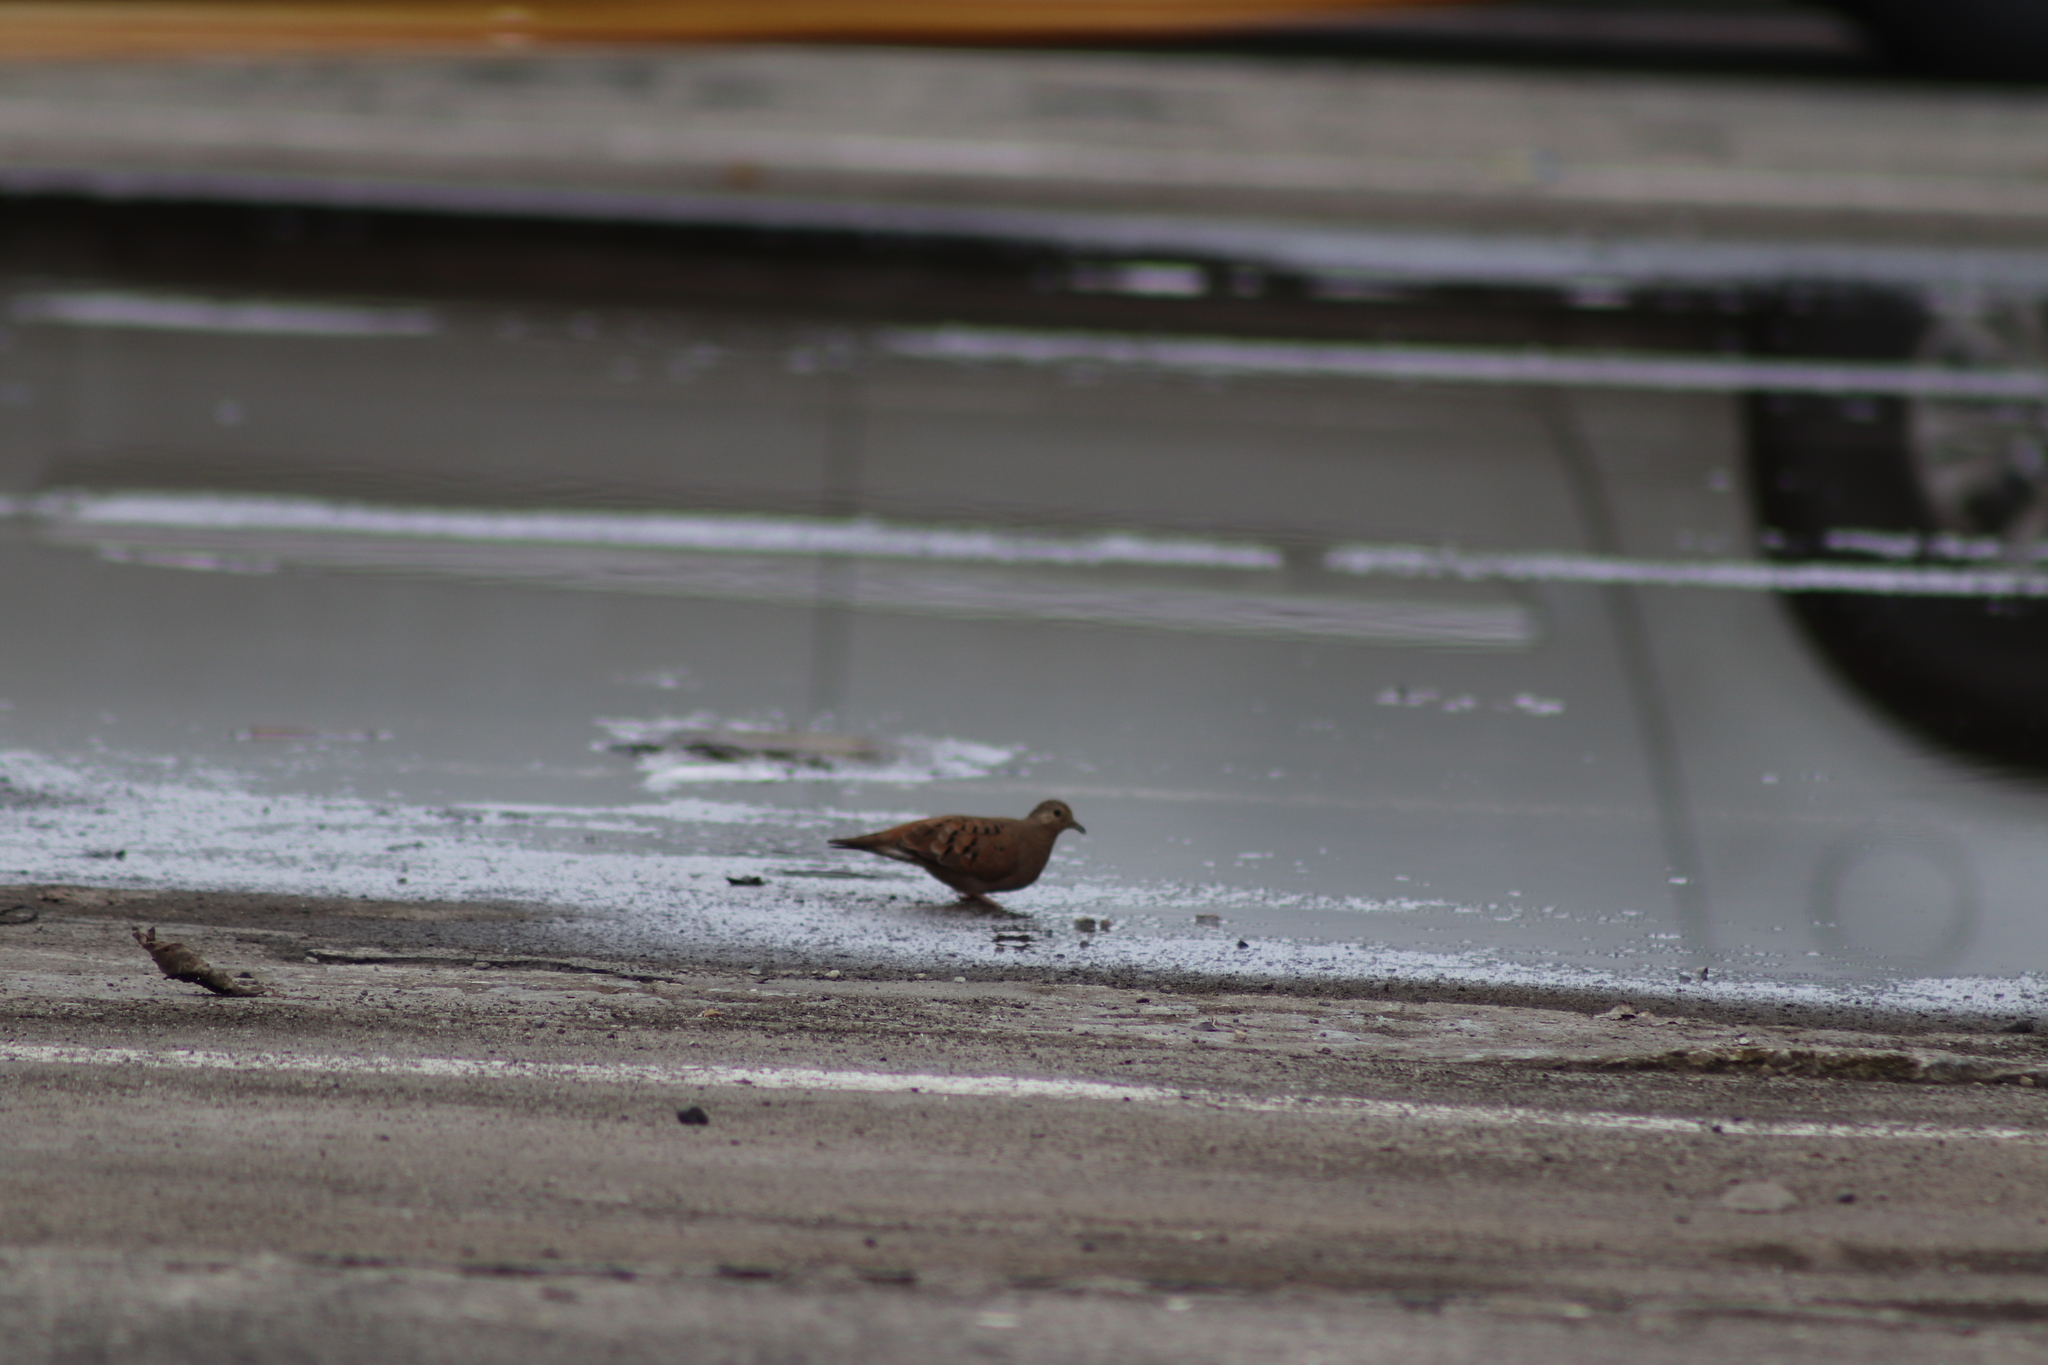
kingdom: Animalia
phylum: Chordata
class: Aves
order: Columbiformes
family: Columbidae
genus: Columbina
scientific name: Columbina talpacoti
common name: Ruddy ground dove
